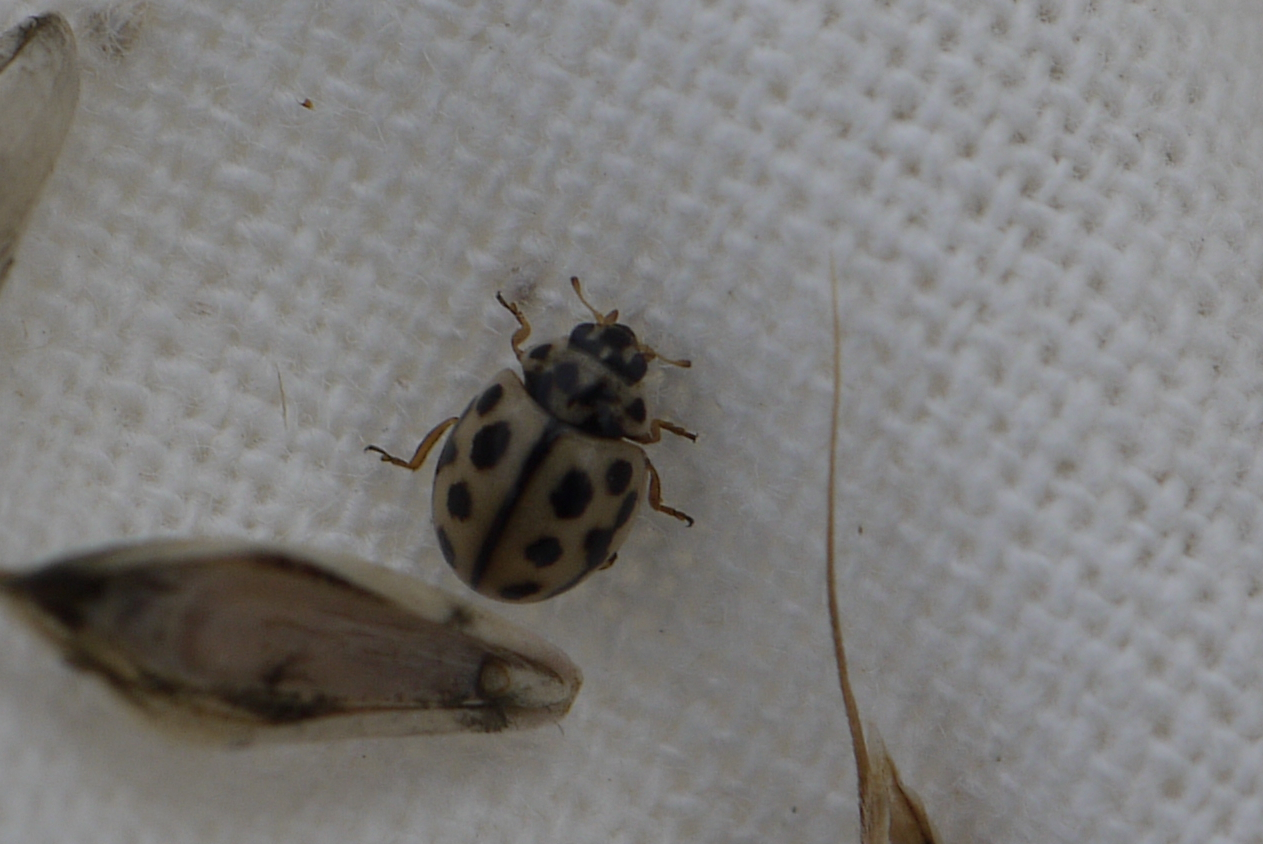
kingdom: Animalia
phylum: Arthropoda
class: Insecta
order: Coleoptera
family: Coccinellidae
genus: Tytthaspis
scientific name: Tytthaspis sedecimpunctata
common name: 16-spot ladybird
